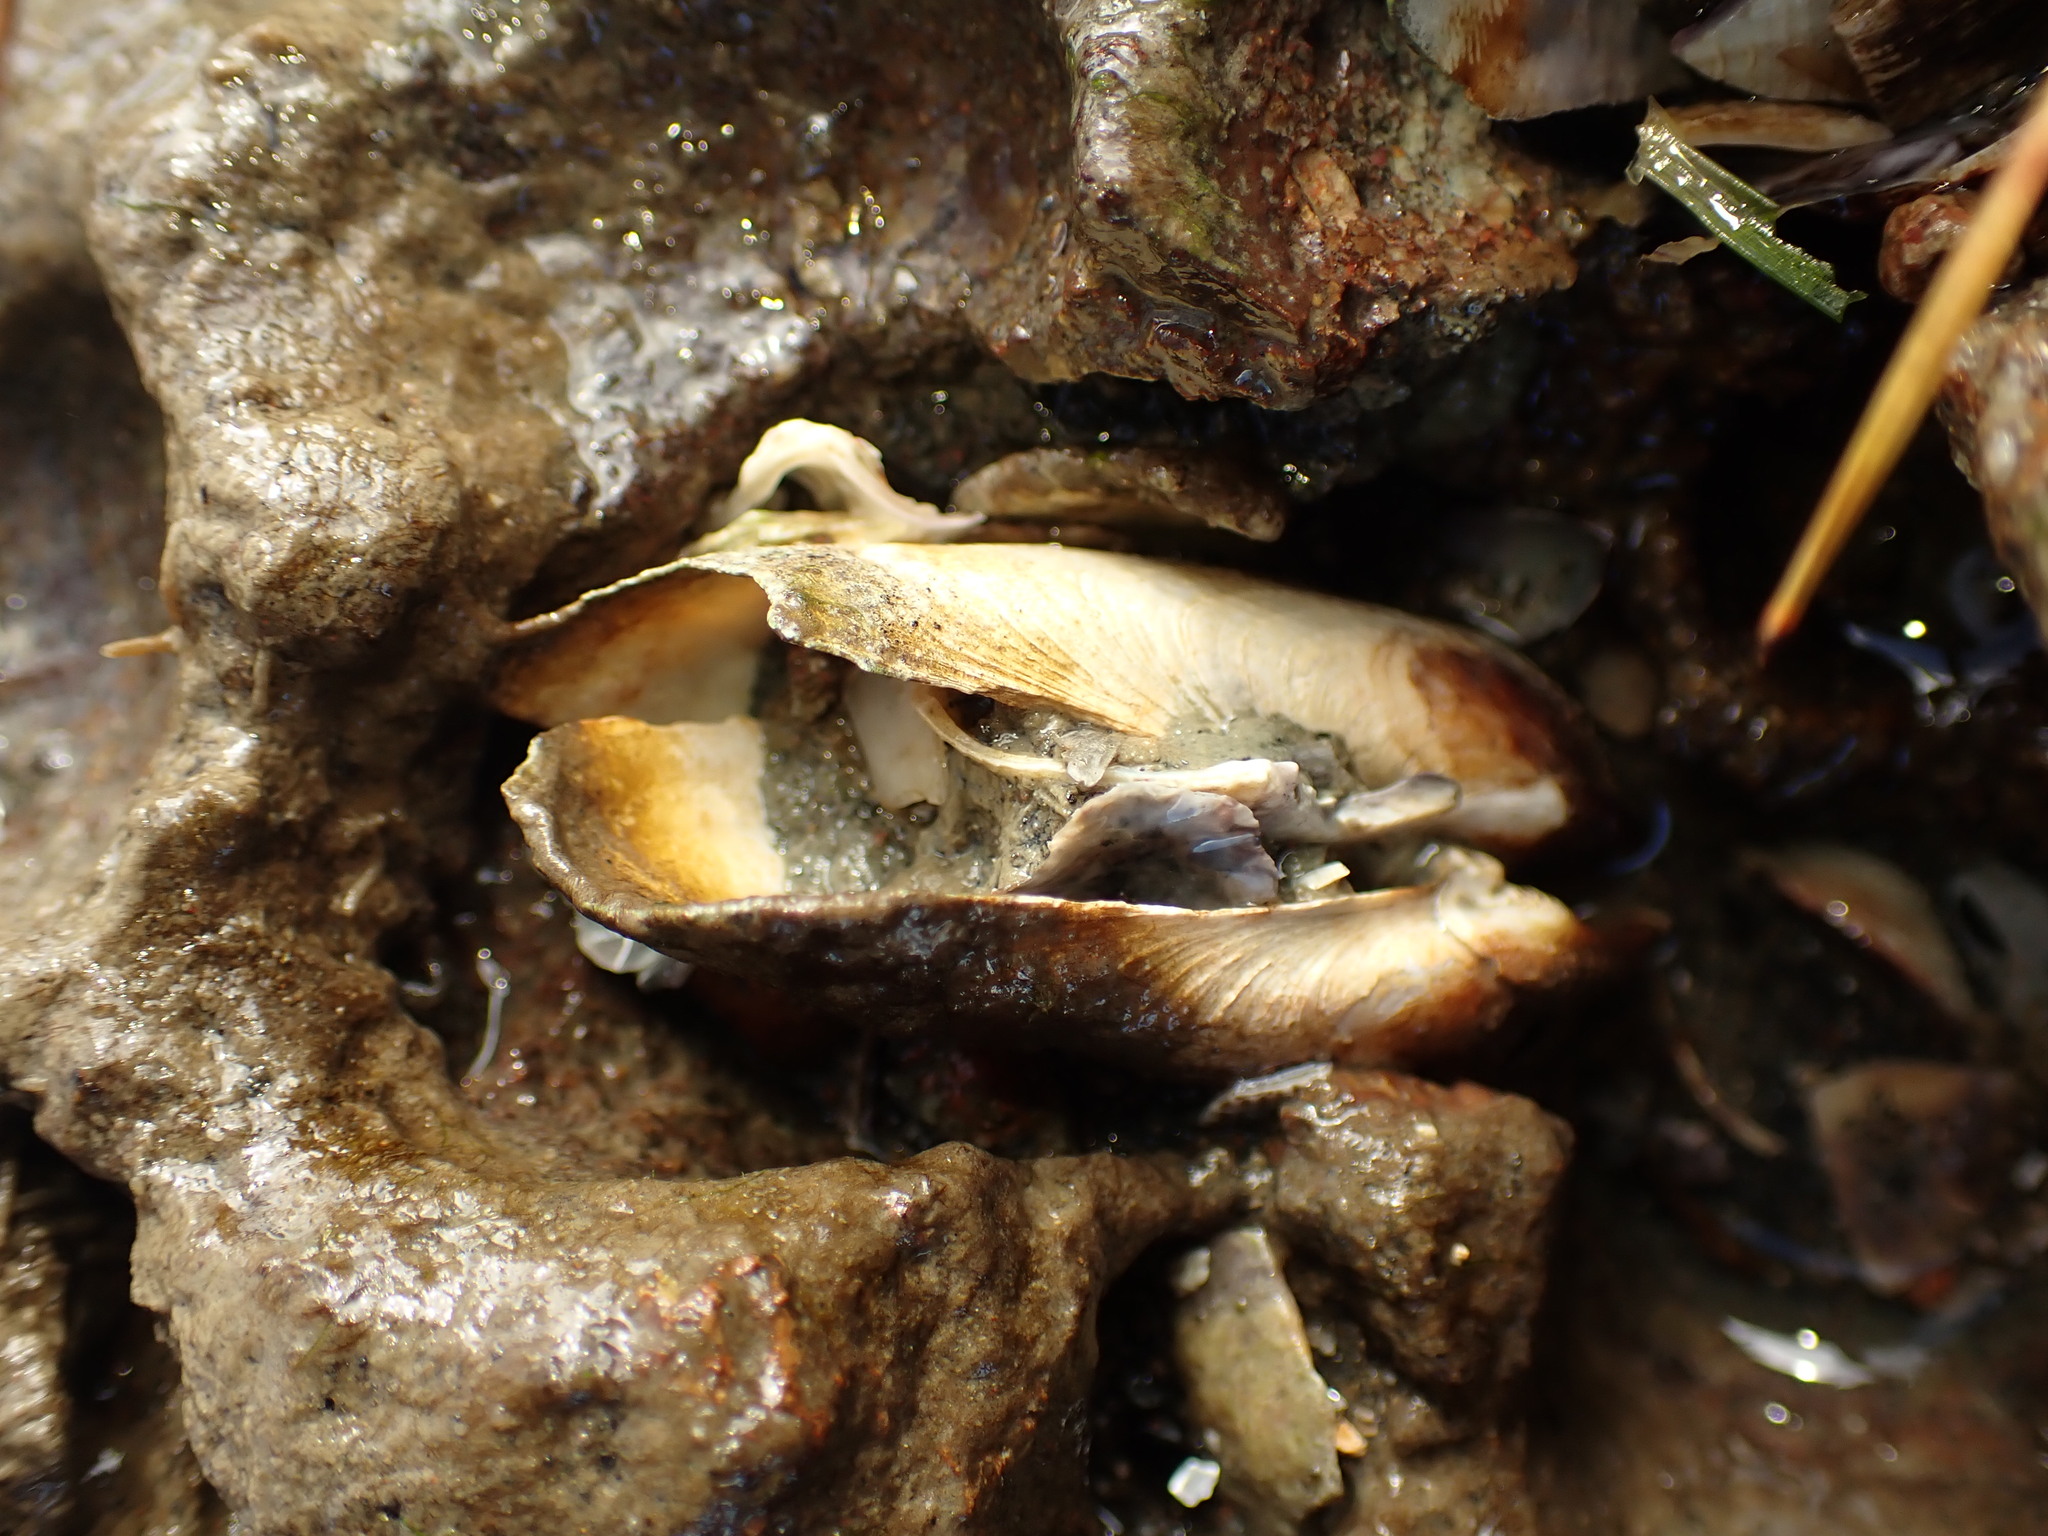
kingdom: Animalia
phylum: Mollusca
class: Bivalvia
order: Myida
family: Pholadidae
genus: Barnea
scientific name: Barnea similis
